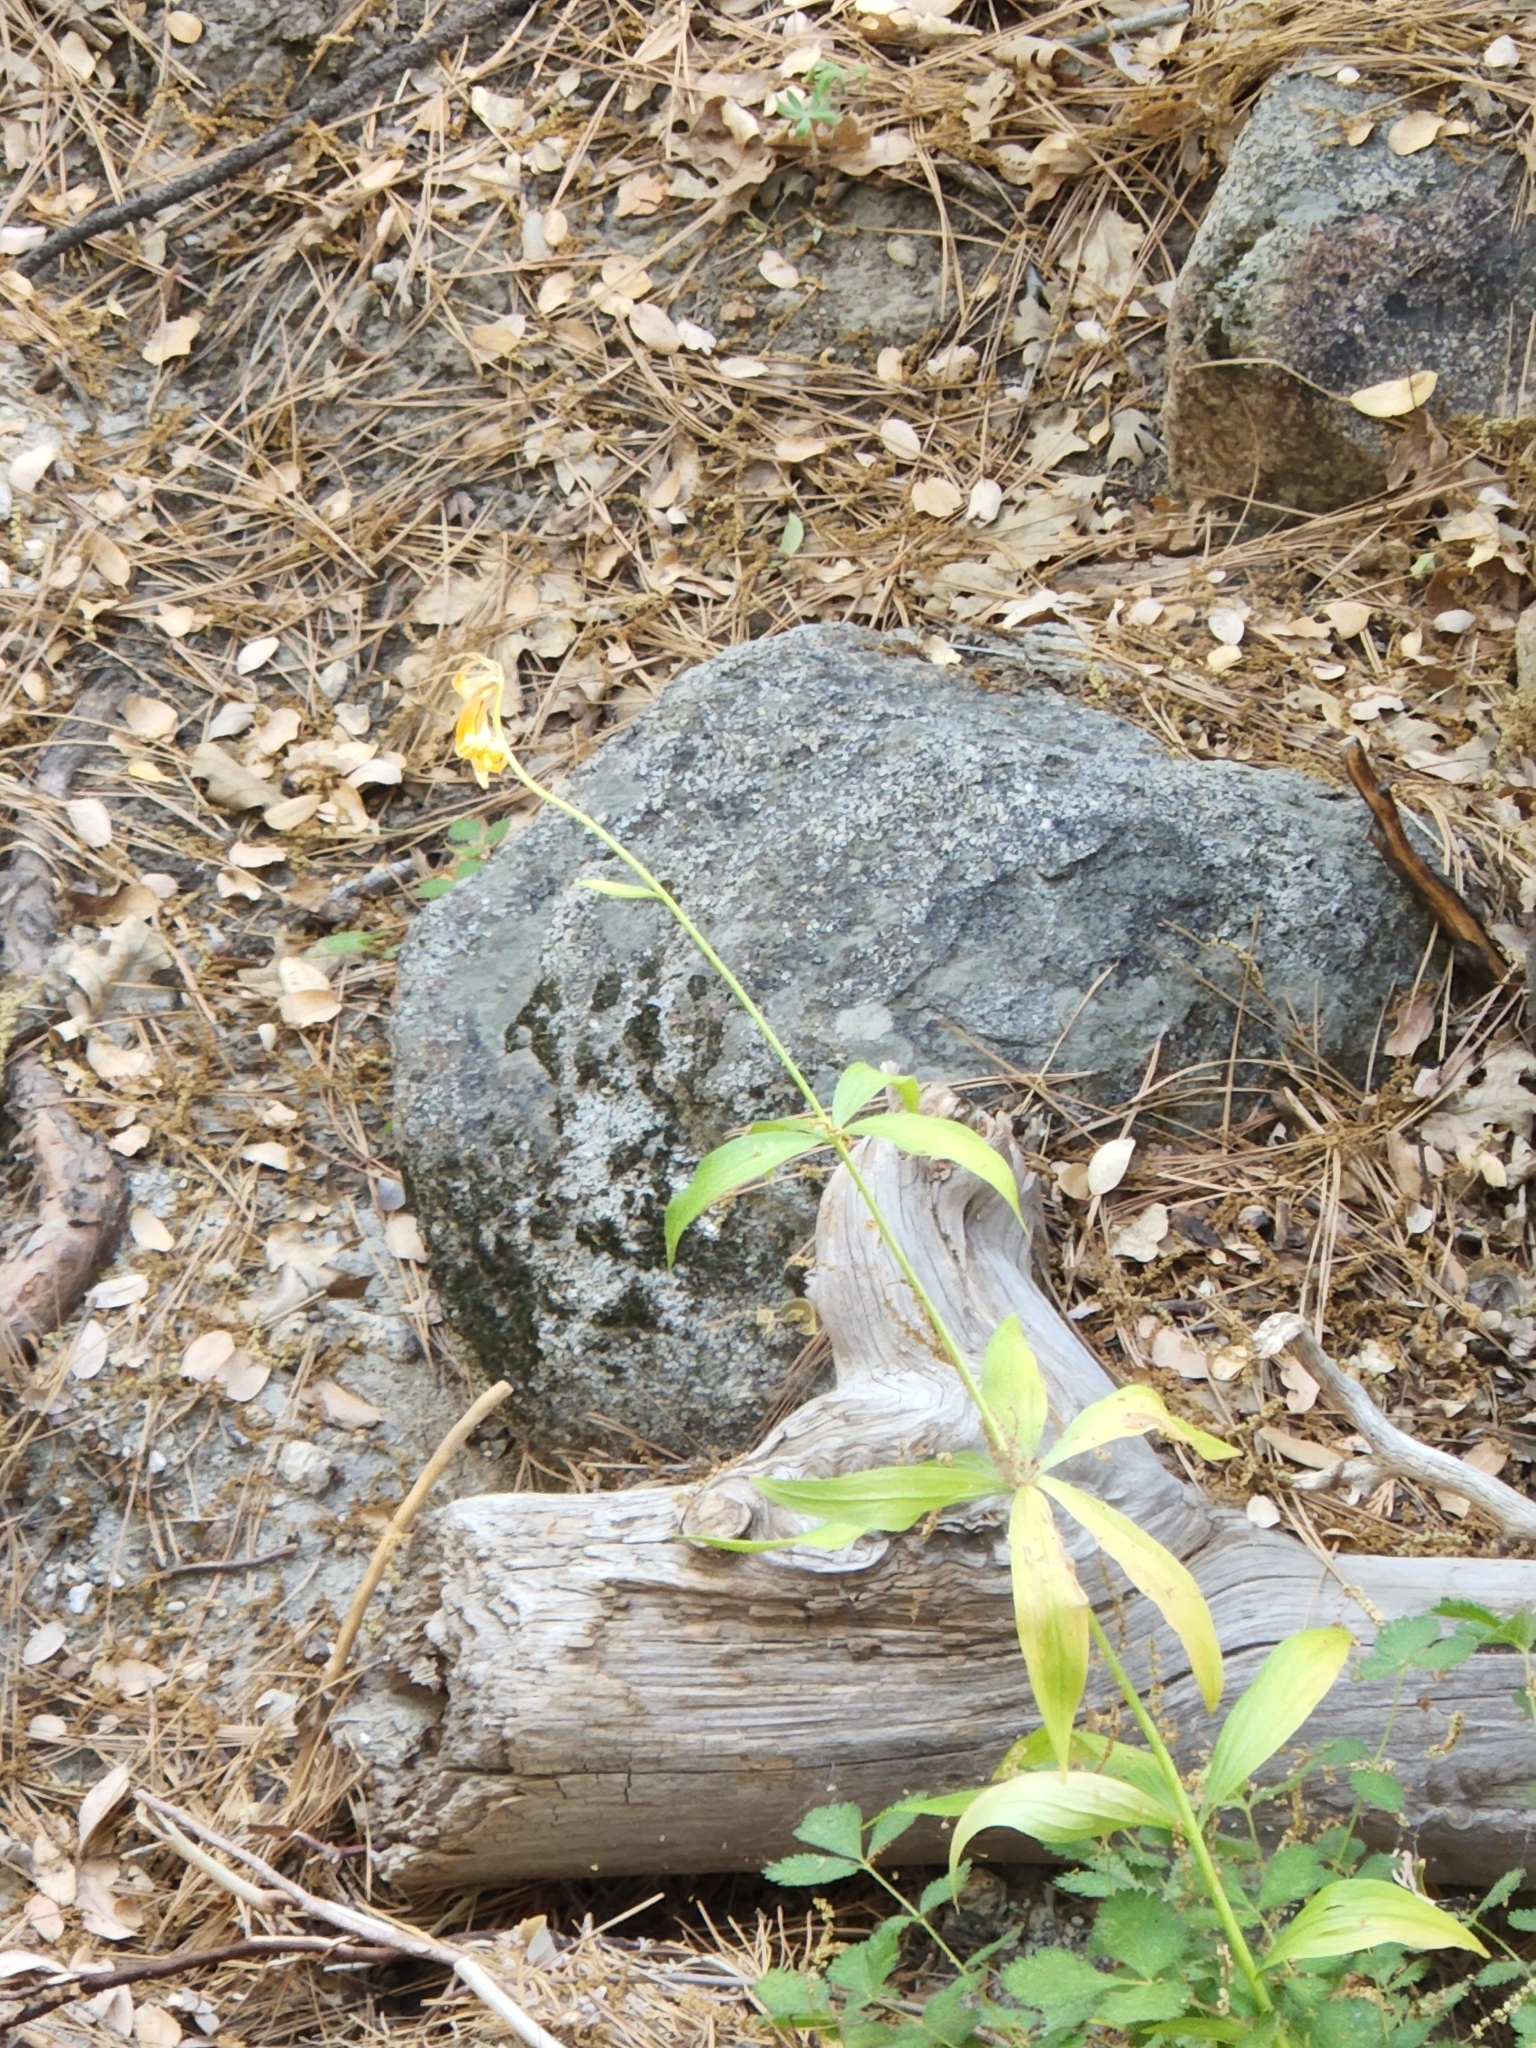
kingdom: Plantae
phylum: Tracheophyta
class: Liliopsida
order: Liliales
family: Liliaceae
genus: Lilium
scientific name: Lilium parryi
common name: Lemon lily
